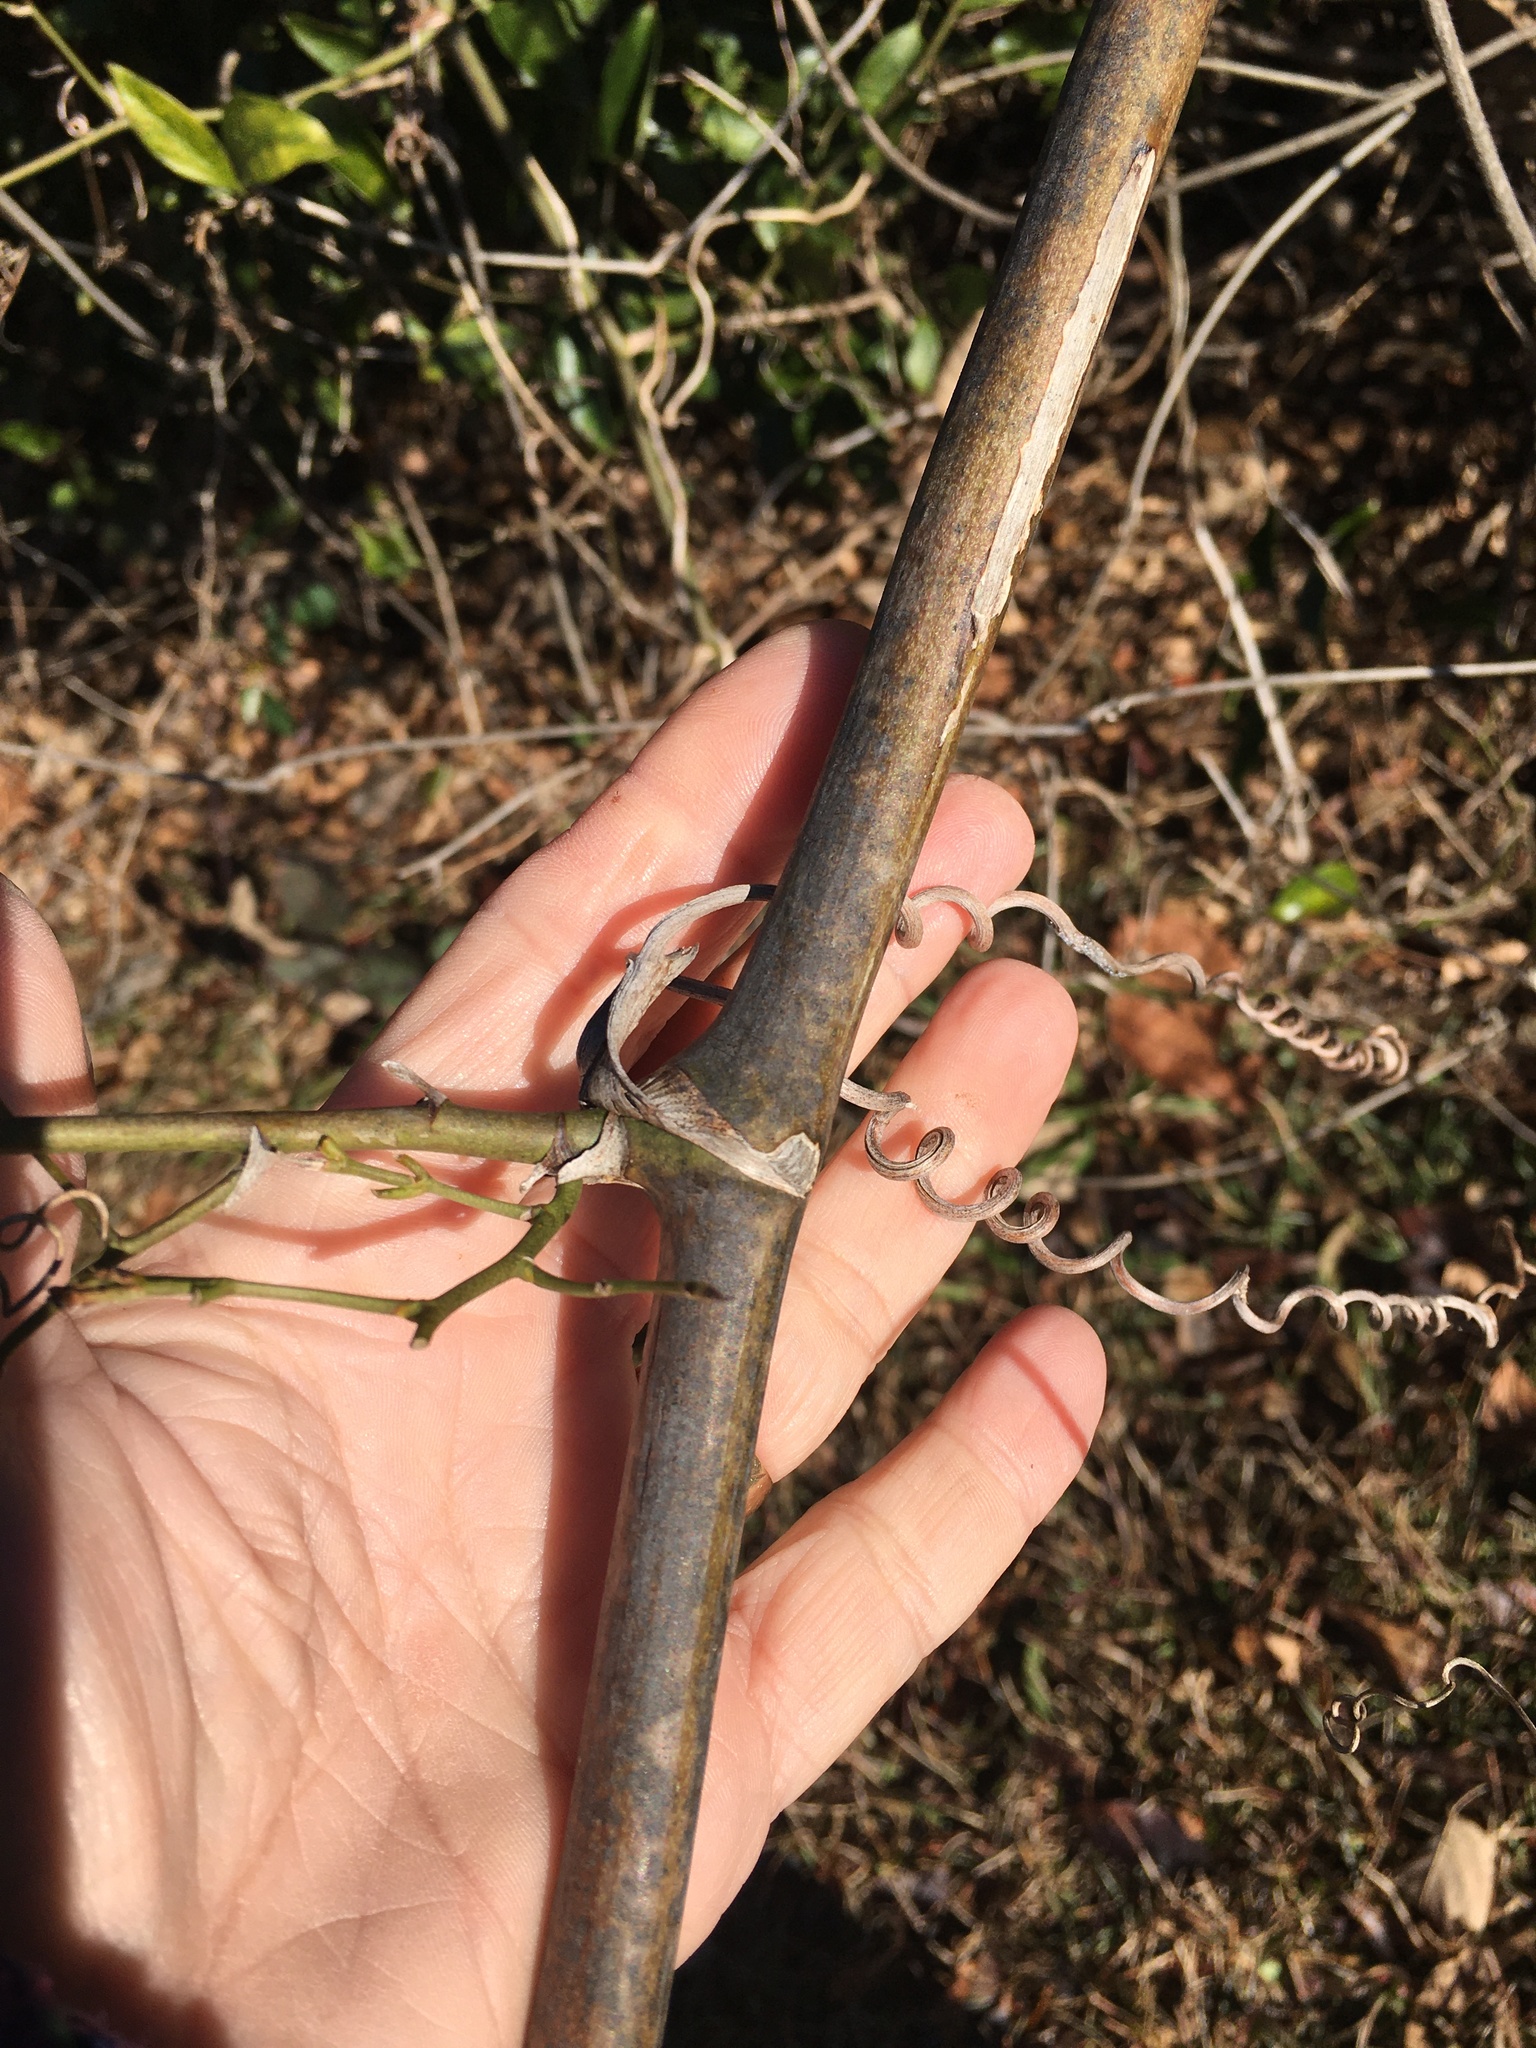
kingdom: Plantae
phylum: Tracheophyta
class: Liliopsida
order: Liliales
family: Smilacaceae
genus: Smilax
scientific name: Smilax maritima
